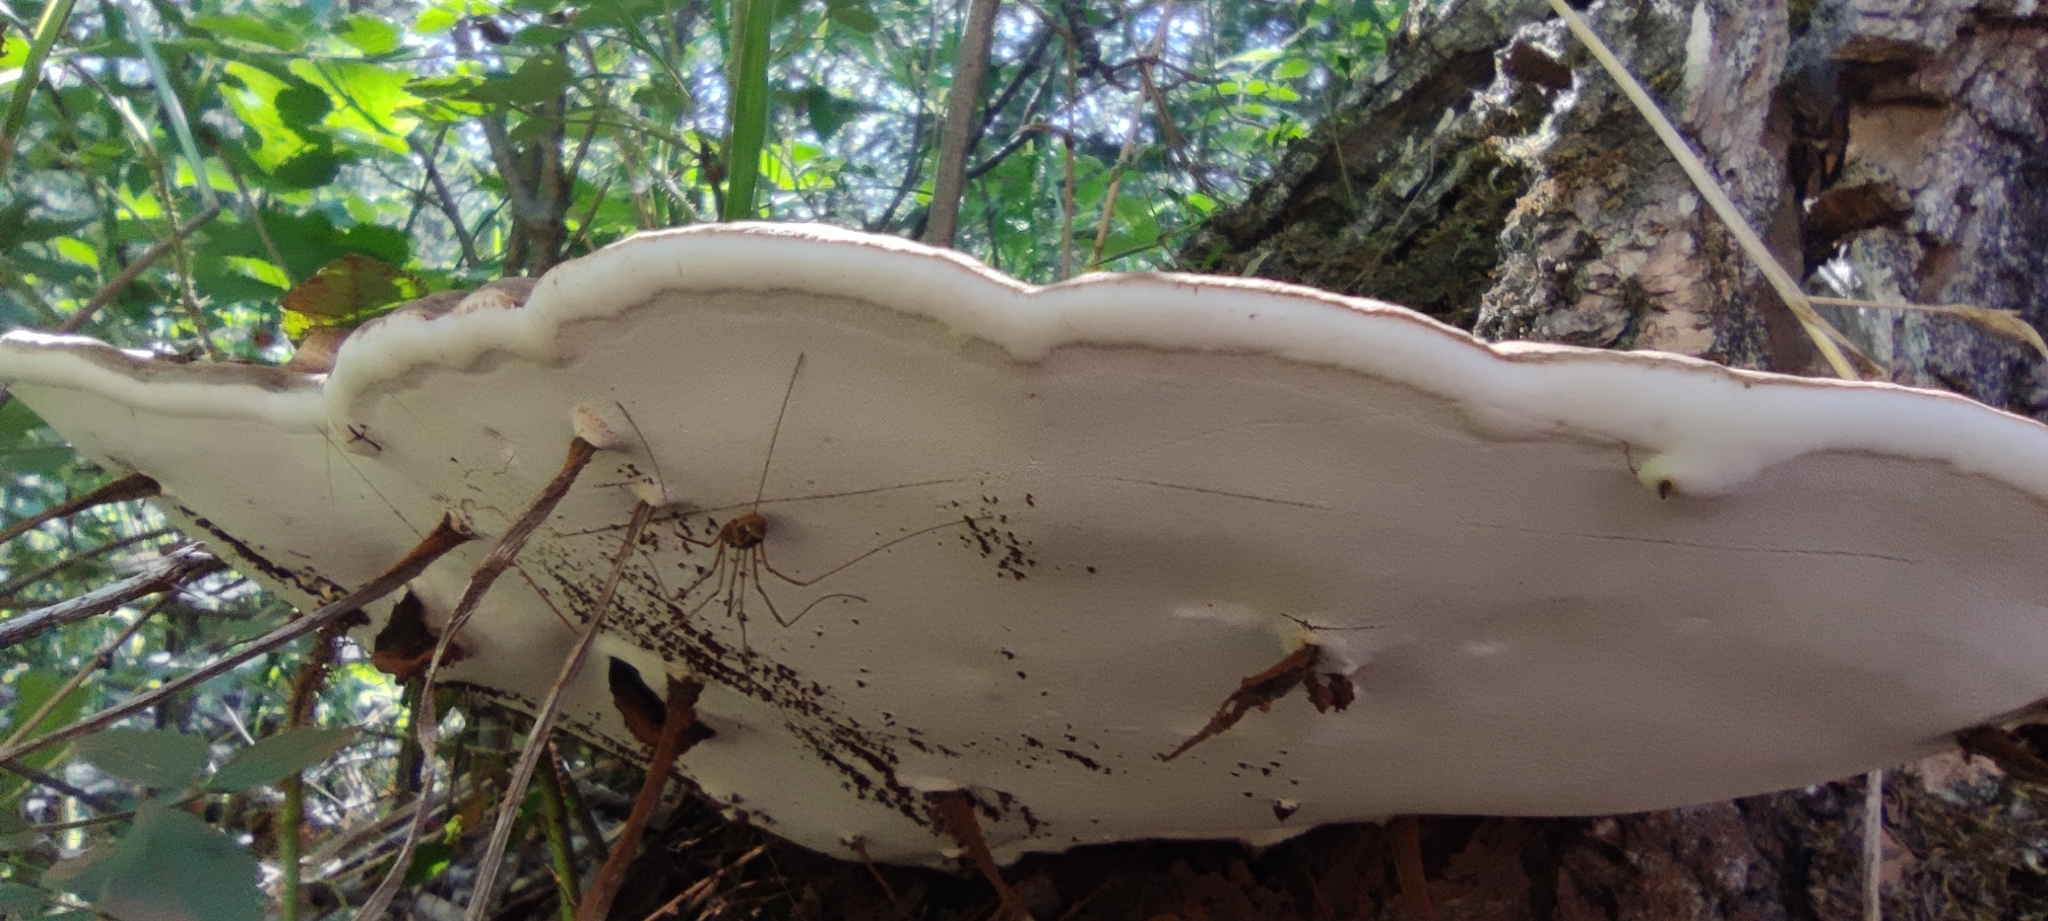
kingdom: Fungi
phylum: Basidiomycota
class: Agaricomycetes
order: Polyporales
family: Polyporaceae
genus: Ganoderma
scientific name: Ganoderma applanatum
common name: Artist's bracket
